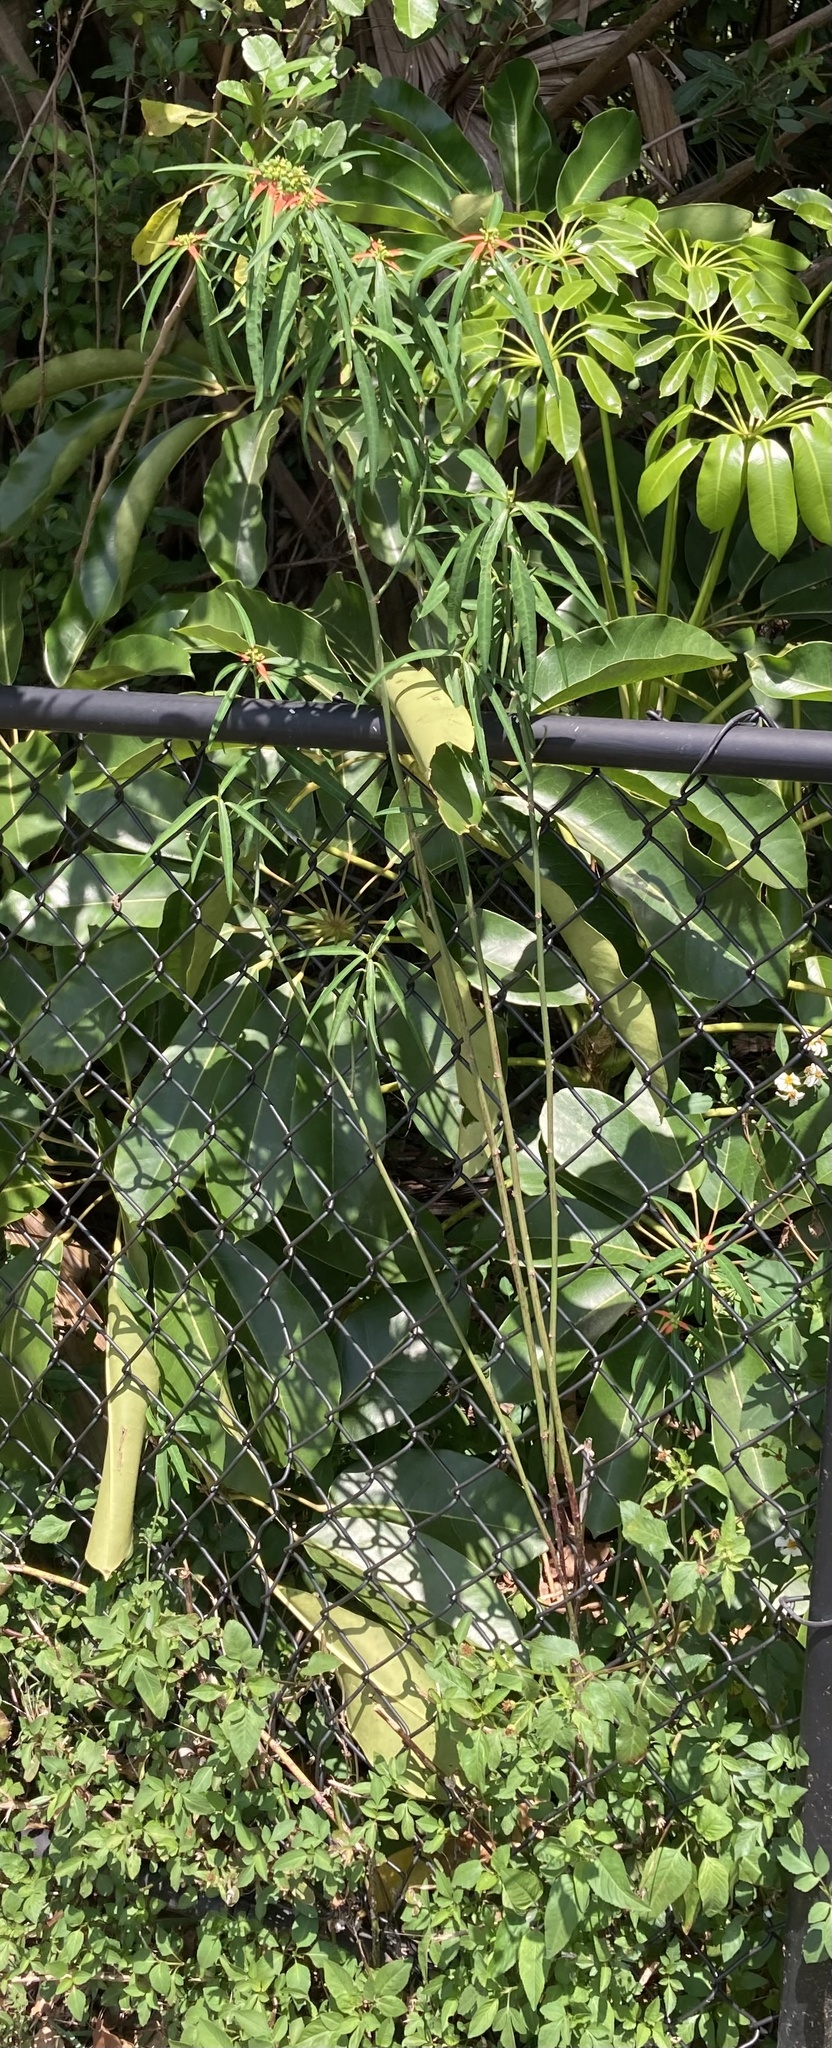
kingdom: Plantae
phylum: Tracheophyta
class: Magnoliopsida
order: Malpighiales
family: Euphorbiaceae
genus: Euphorbia
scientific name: Euphorbia heterophylla
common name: Mexican fireplant
